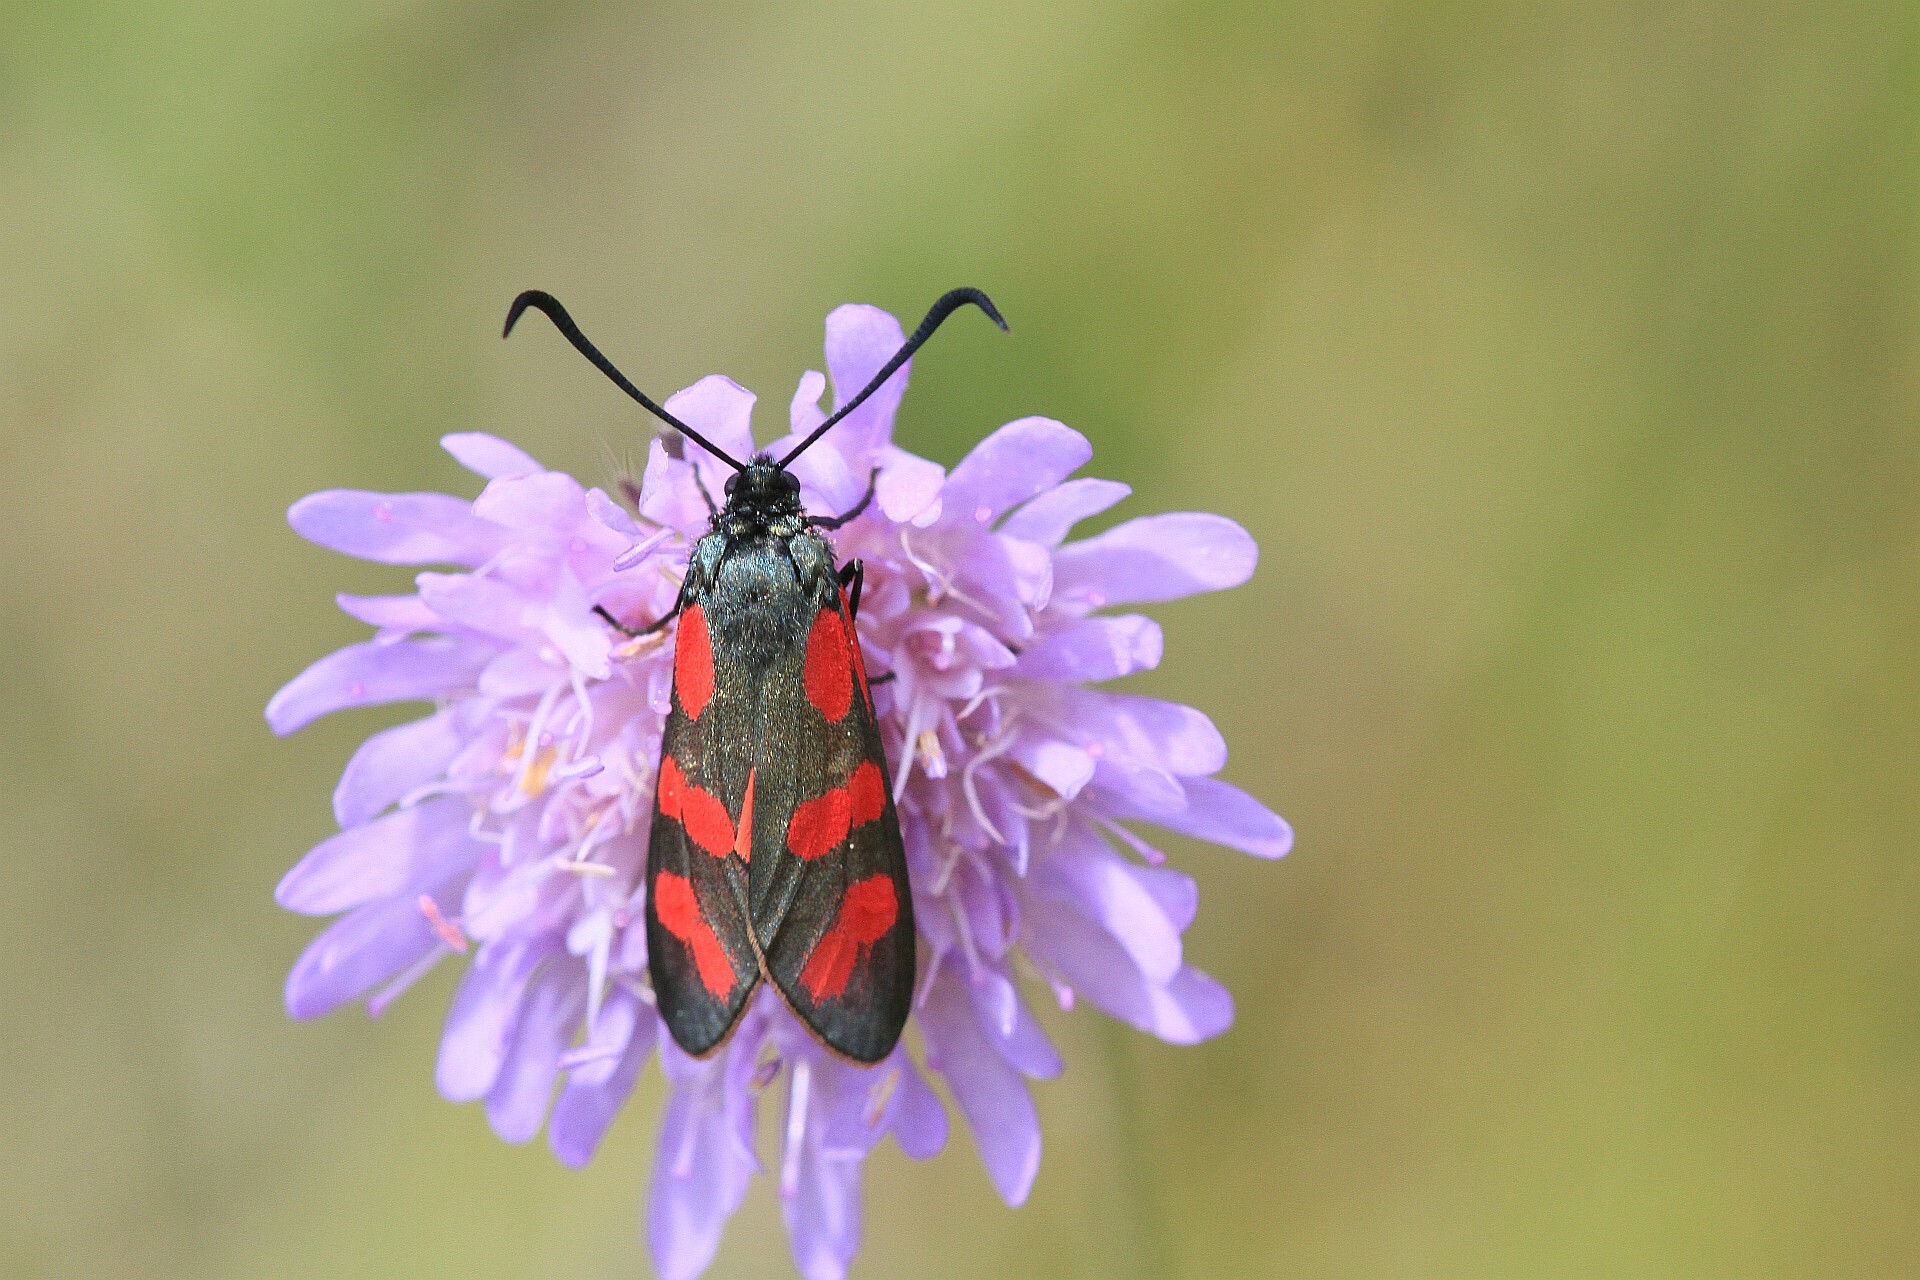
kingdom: Animalia
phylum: Arthropoda
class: Insecta
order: Lepidoptera
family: Zygaenidae
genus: Zygaena
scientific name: Zygaena filipendulae
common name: Six-spot burnet
